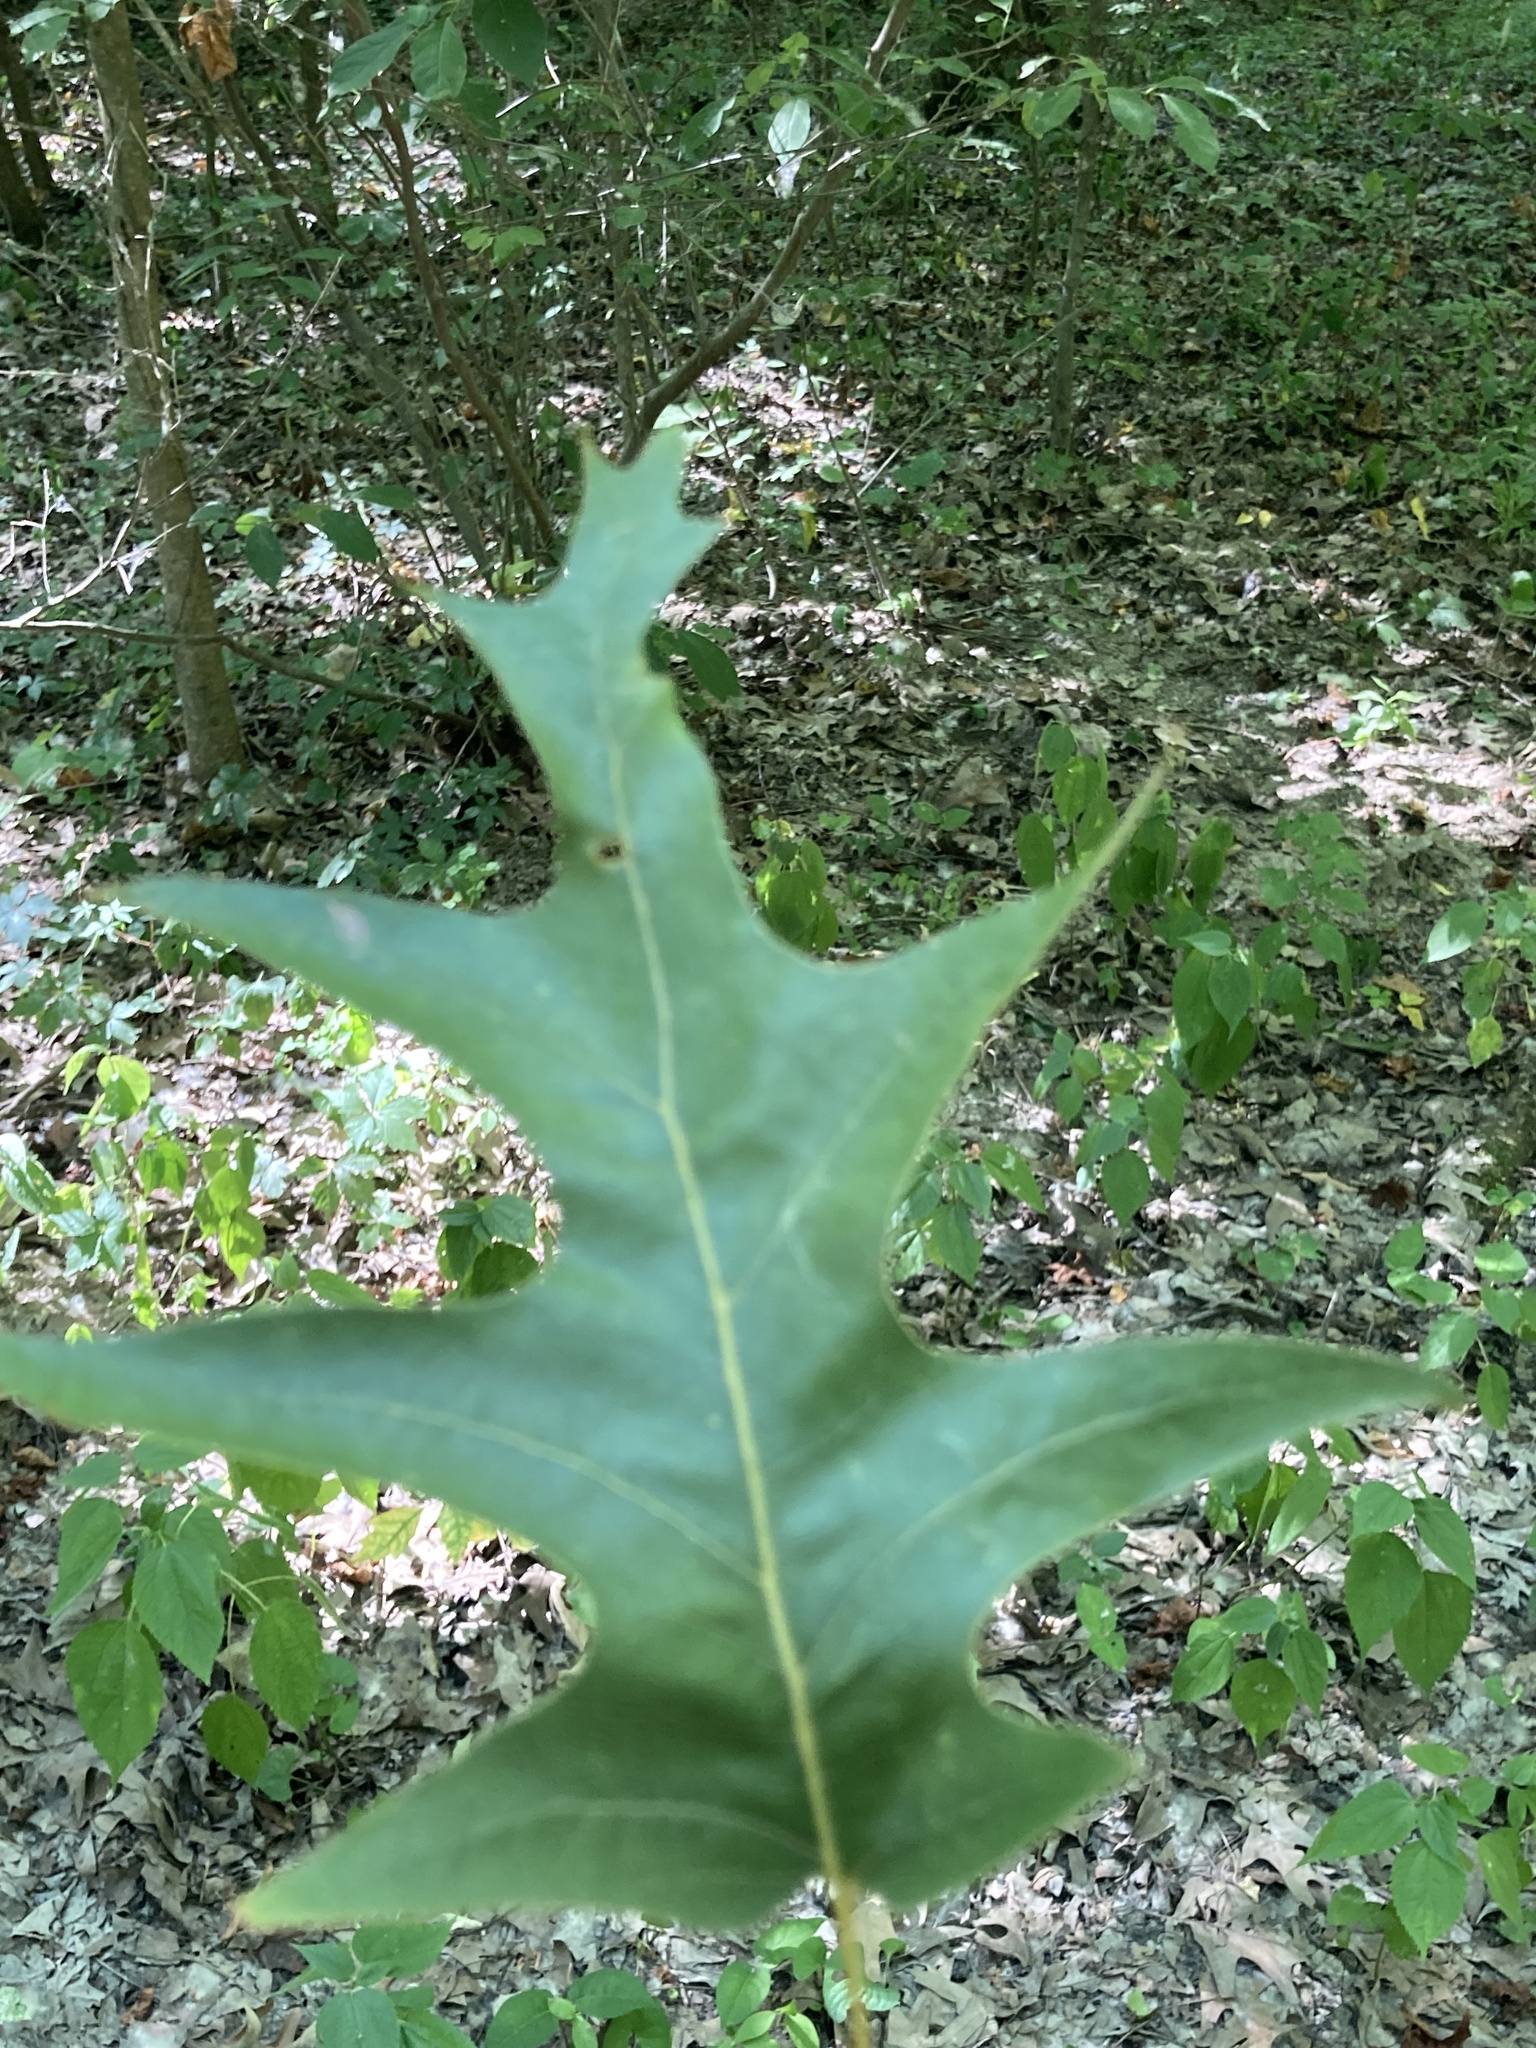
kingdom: Plantae
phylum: Tracheophyta
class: Magnoliopsida
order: Fagales
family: Fagaceae
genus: Quercus
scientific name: Quercus pagoda
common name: Cherrybark oak
